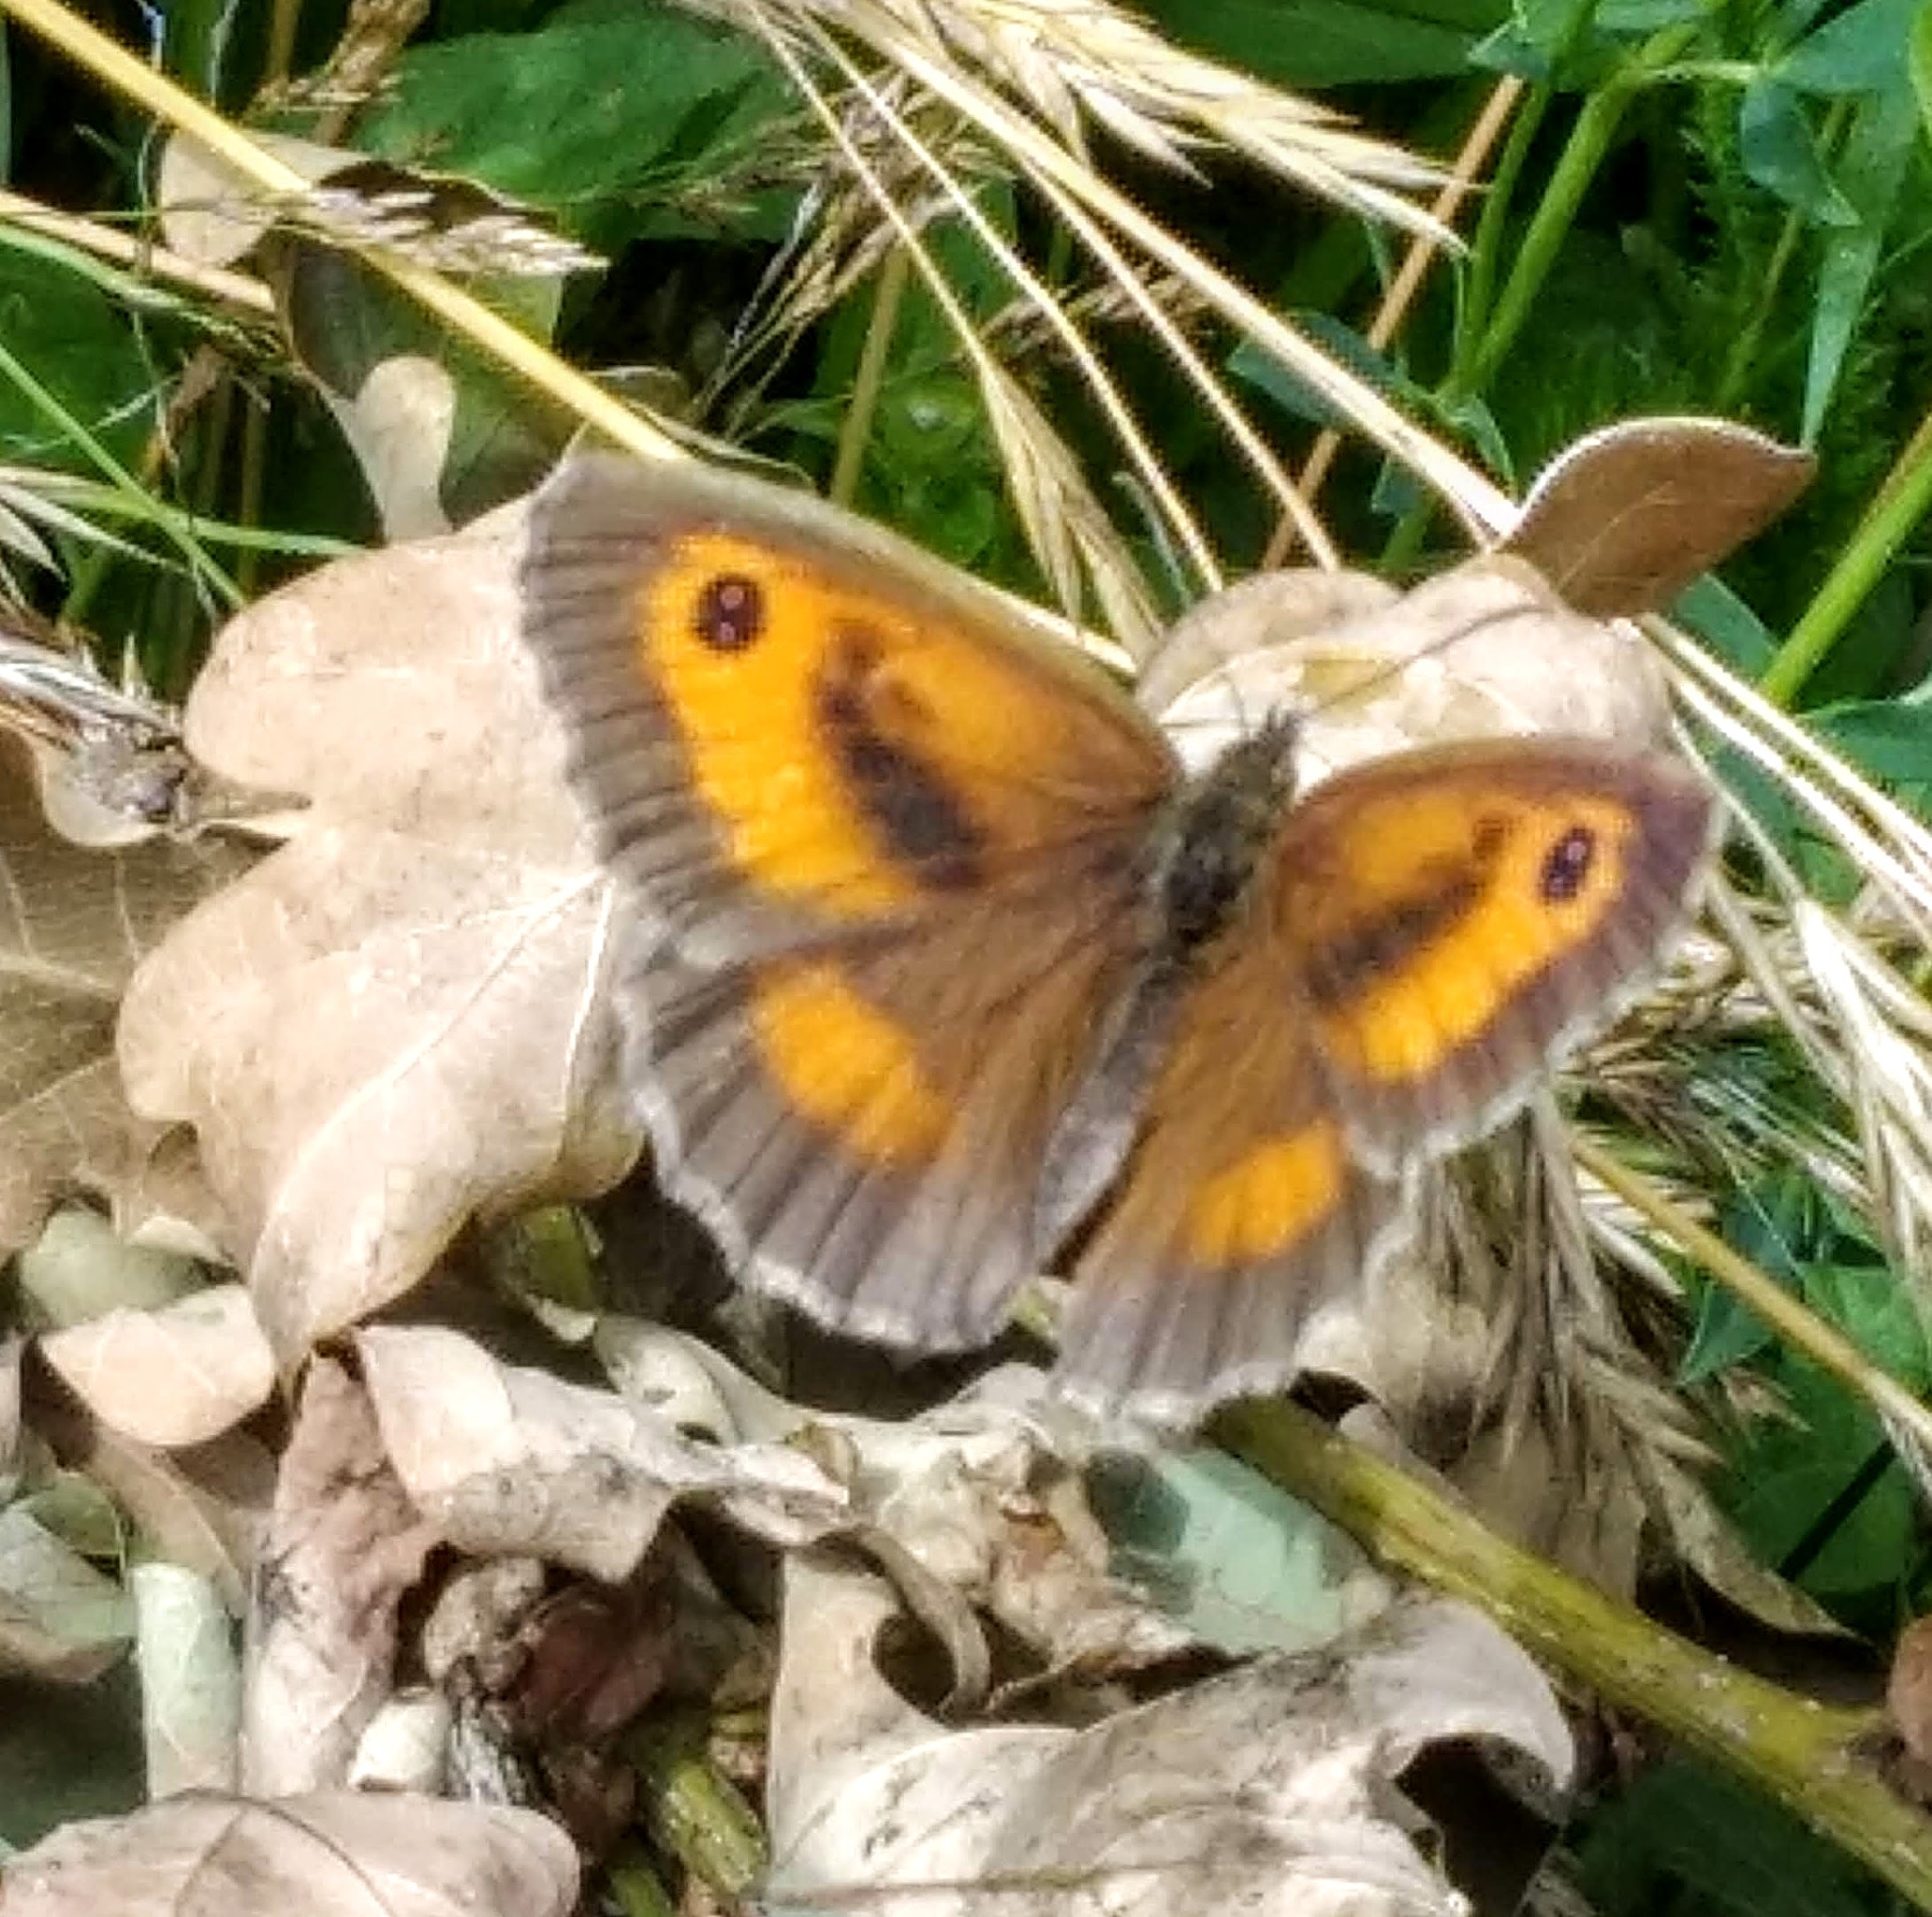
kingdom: Animalia
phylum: Arthropoda
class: Insecta
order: Lepidoptera
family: Nymphalidae
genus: Pyronia
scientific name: Pyronia tithonus
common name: Gatekeeper
